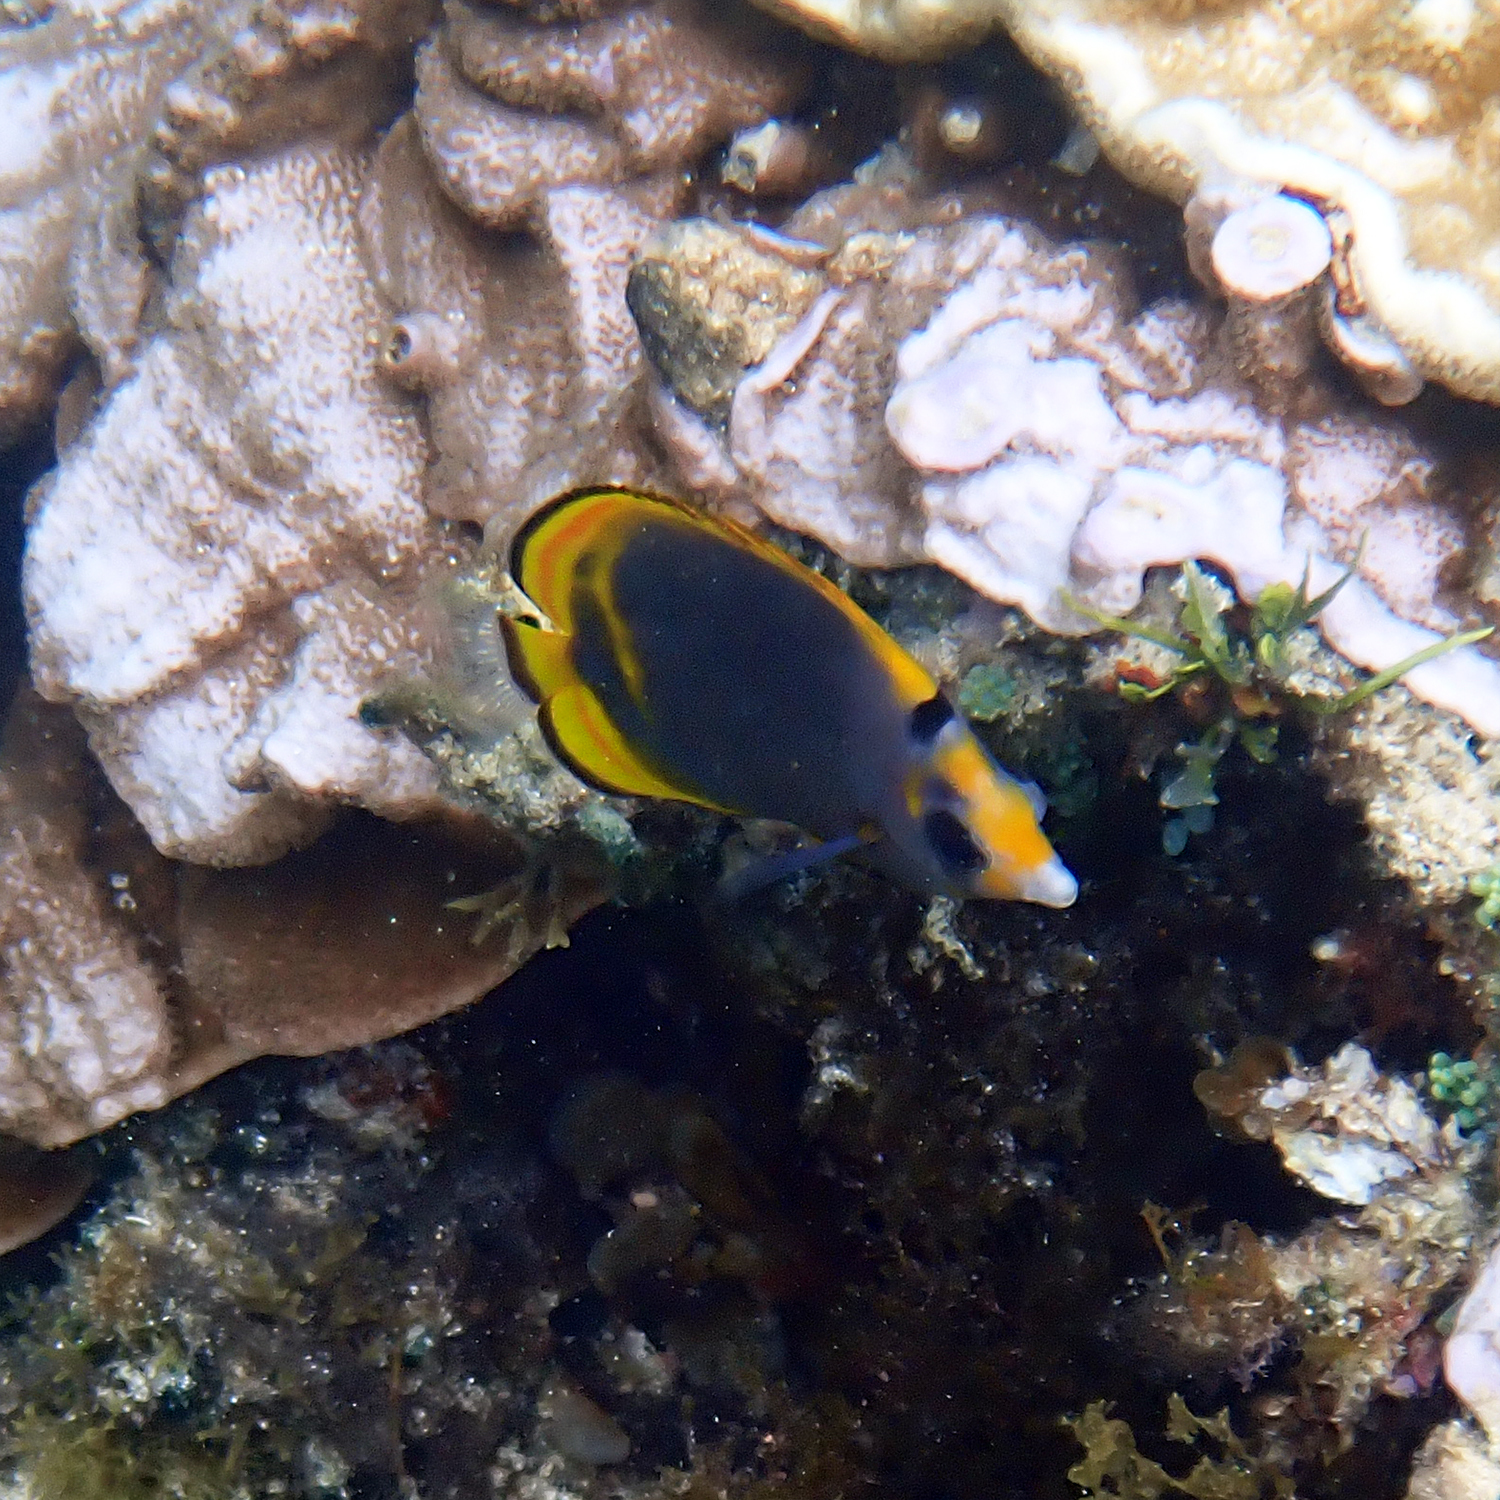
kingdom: Animalia
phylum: Chordata
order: Perciformes
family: Chaetodontidae
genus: Chaetodon
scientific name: Chaetodon flavirostris
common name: Black butterflyfish
